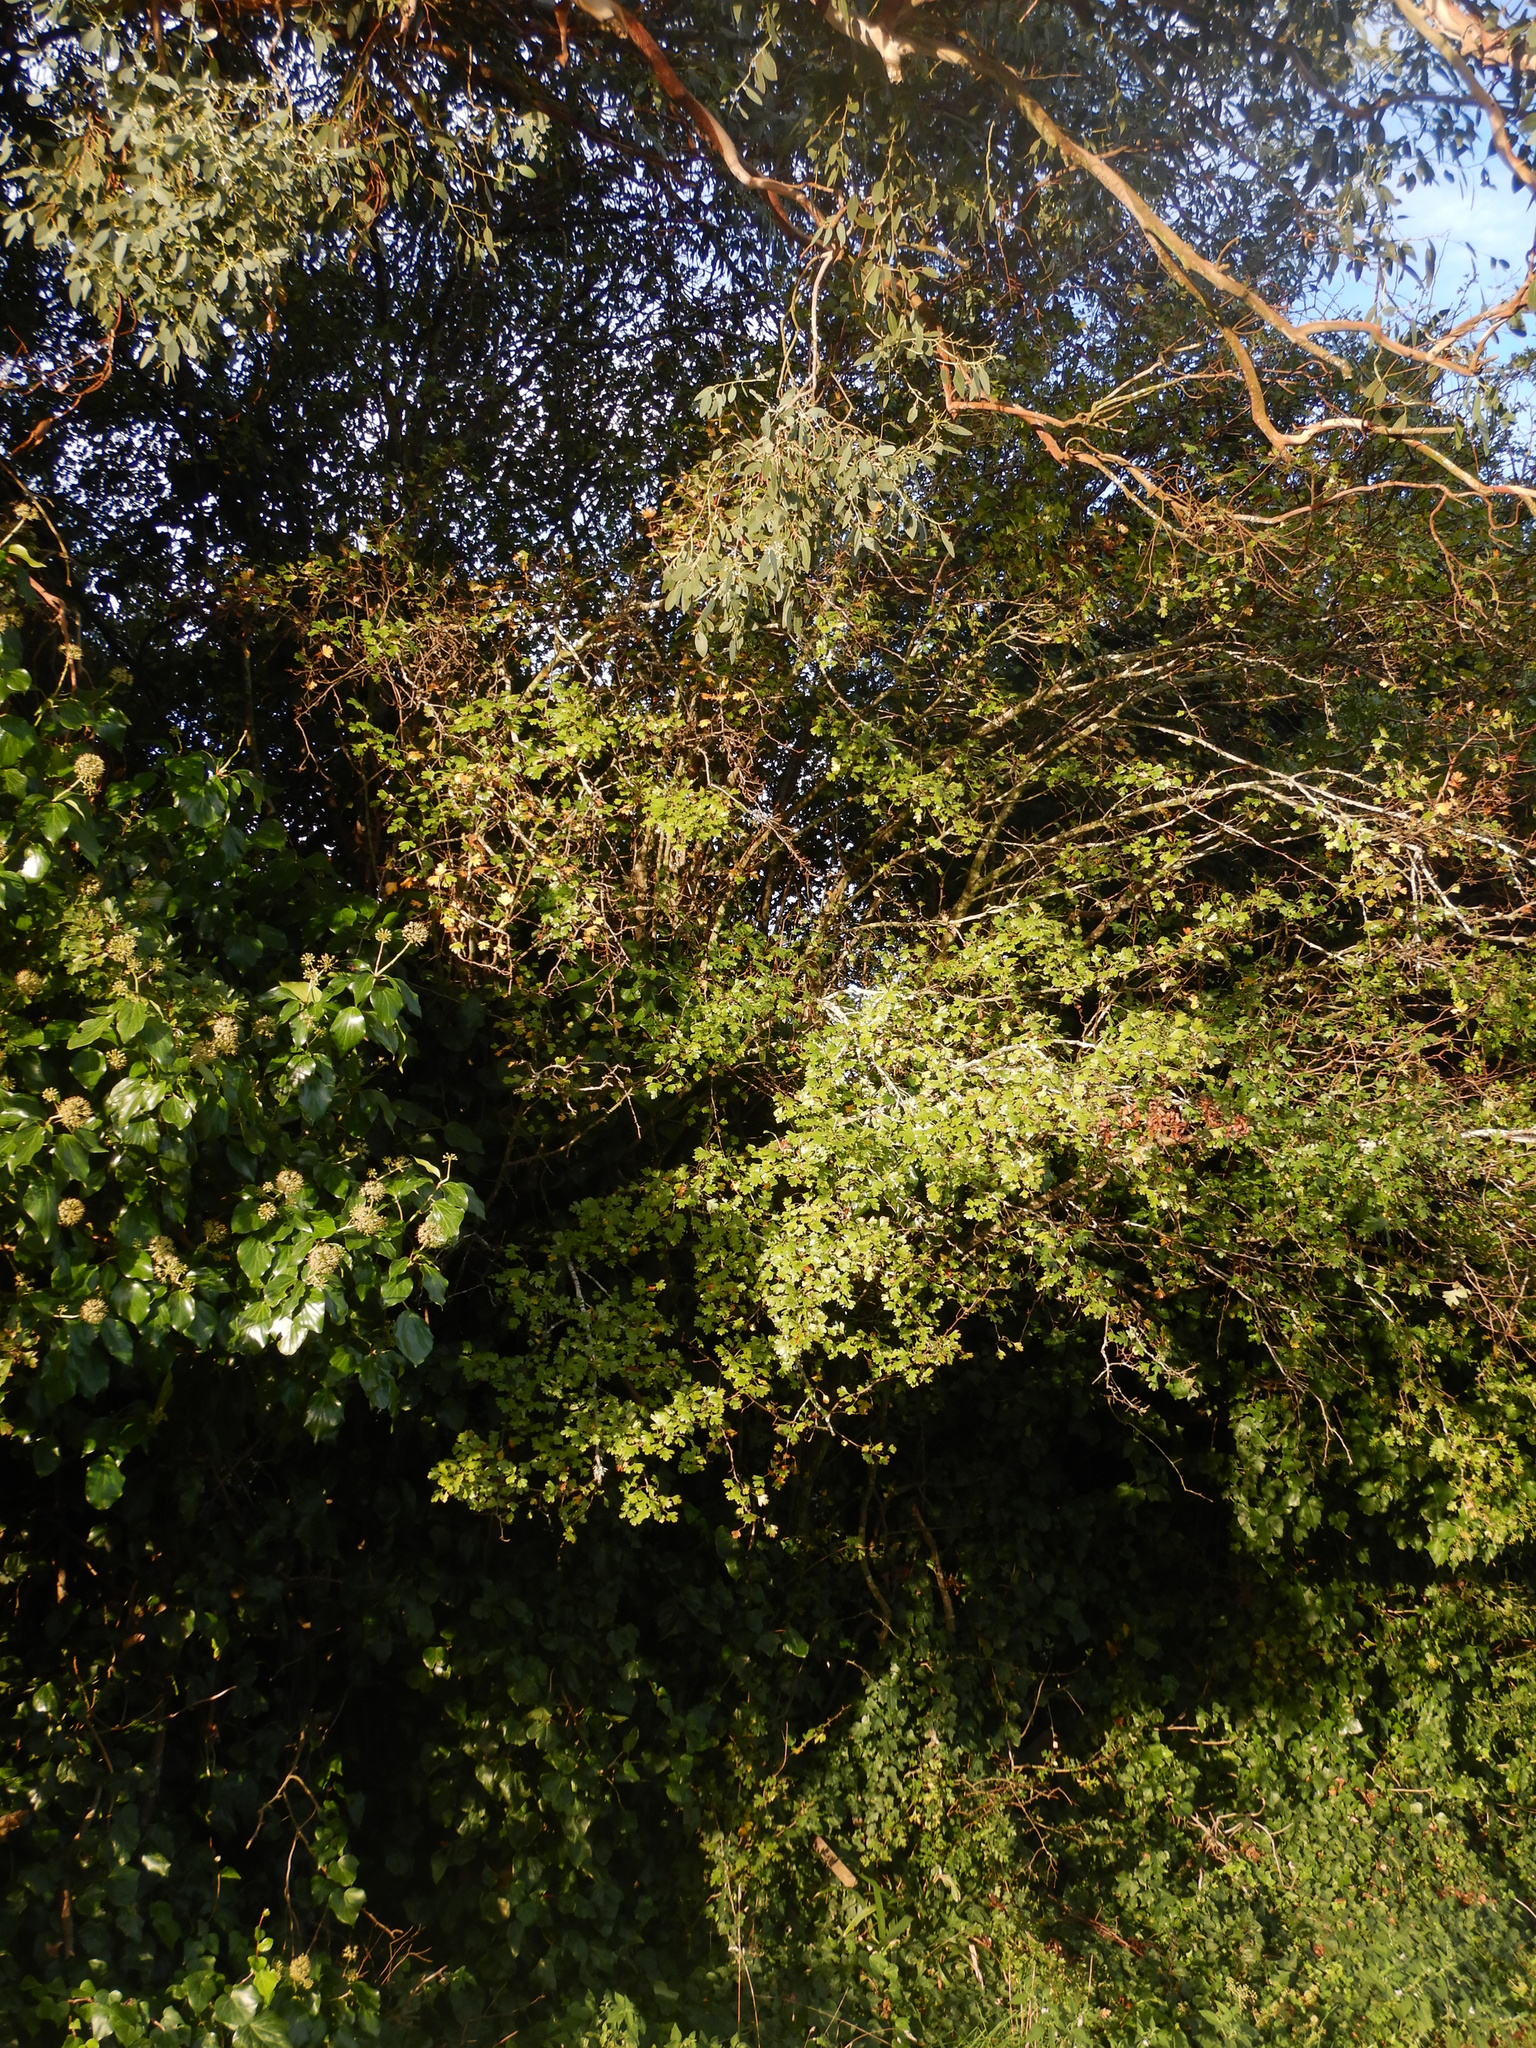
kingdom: Plantae
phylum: Tracheophyta
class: Magnoliopsida
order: Rosales
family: Rosaceae
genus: Crataegus
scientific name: Crataegus monogyna
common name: Hawthorn
